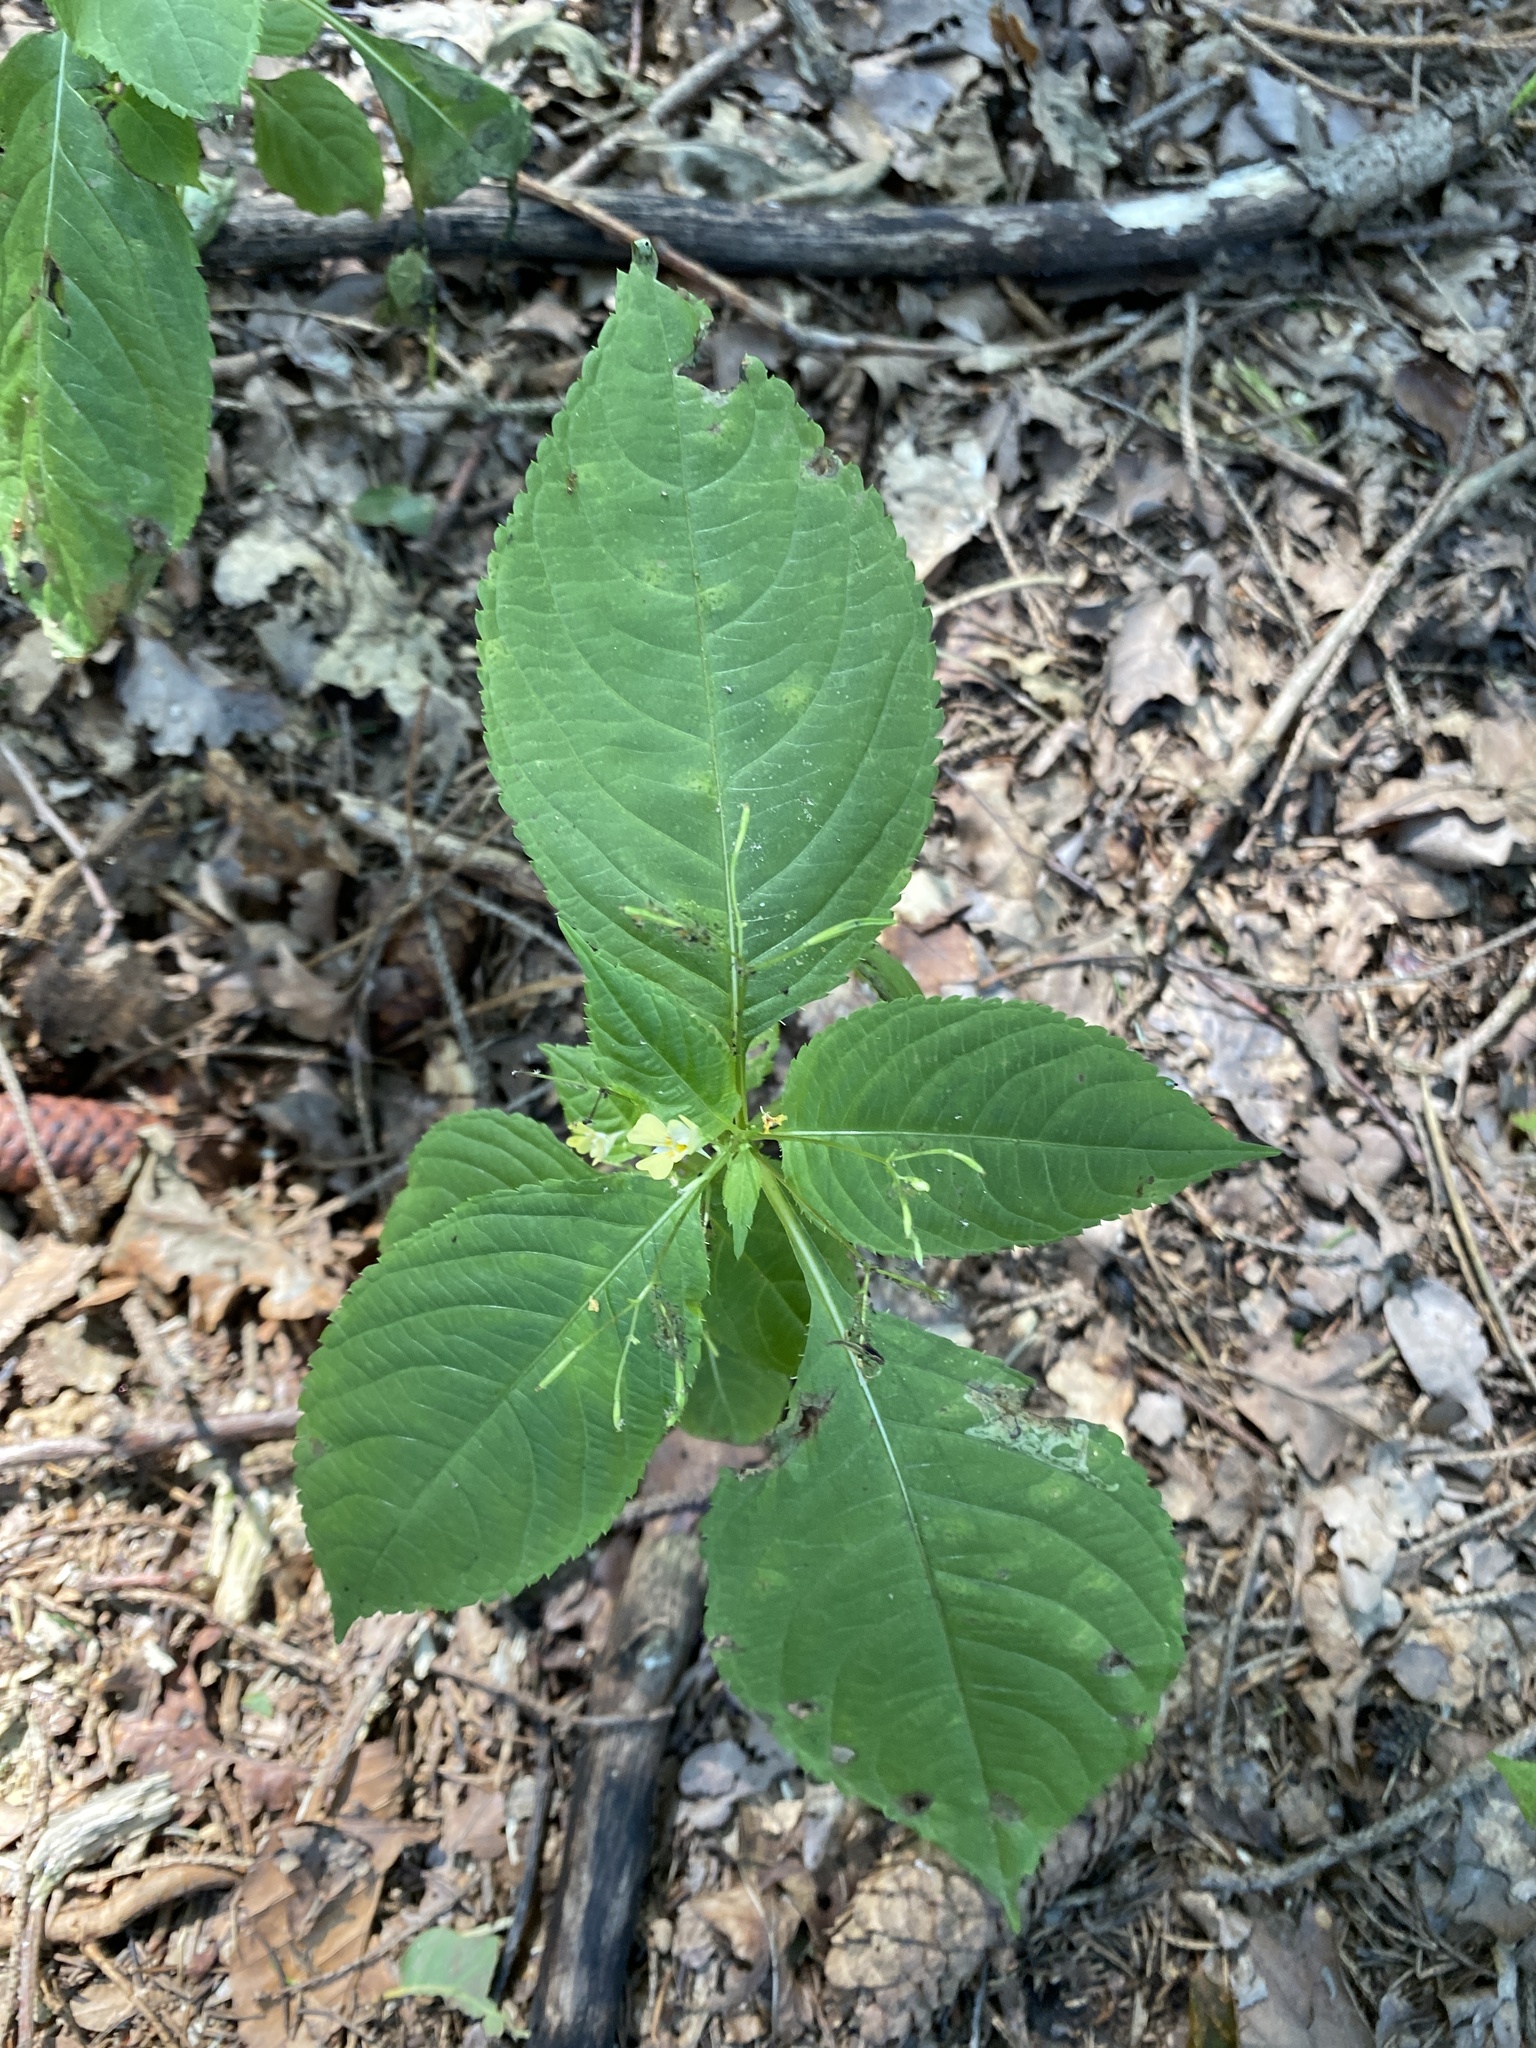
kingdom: Plantae
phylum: Tracheophyta
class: Magnoliopsida
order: Ericales
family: Balsaminaceae
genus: Impatiens
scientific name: Impatiens parviflora
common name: Small balsam
